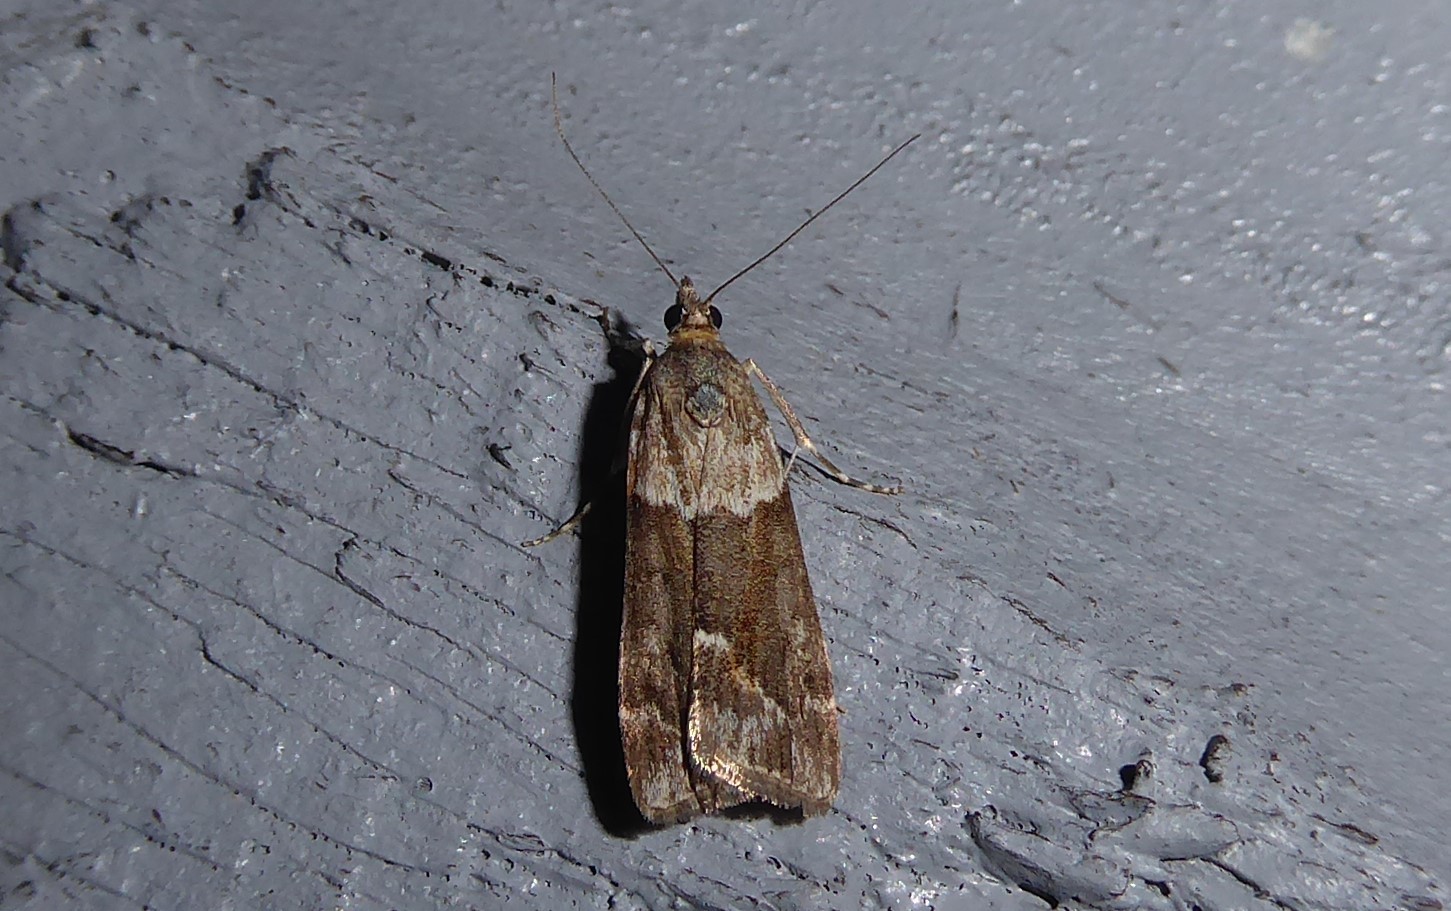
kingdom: Animalia
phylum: Arthropoda
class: Insecta
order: Lepidoptera
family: Crambidae
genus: Eudonia
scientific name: Eudonia submarginalis
